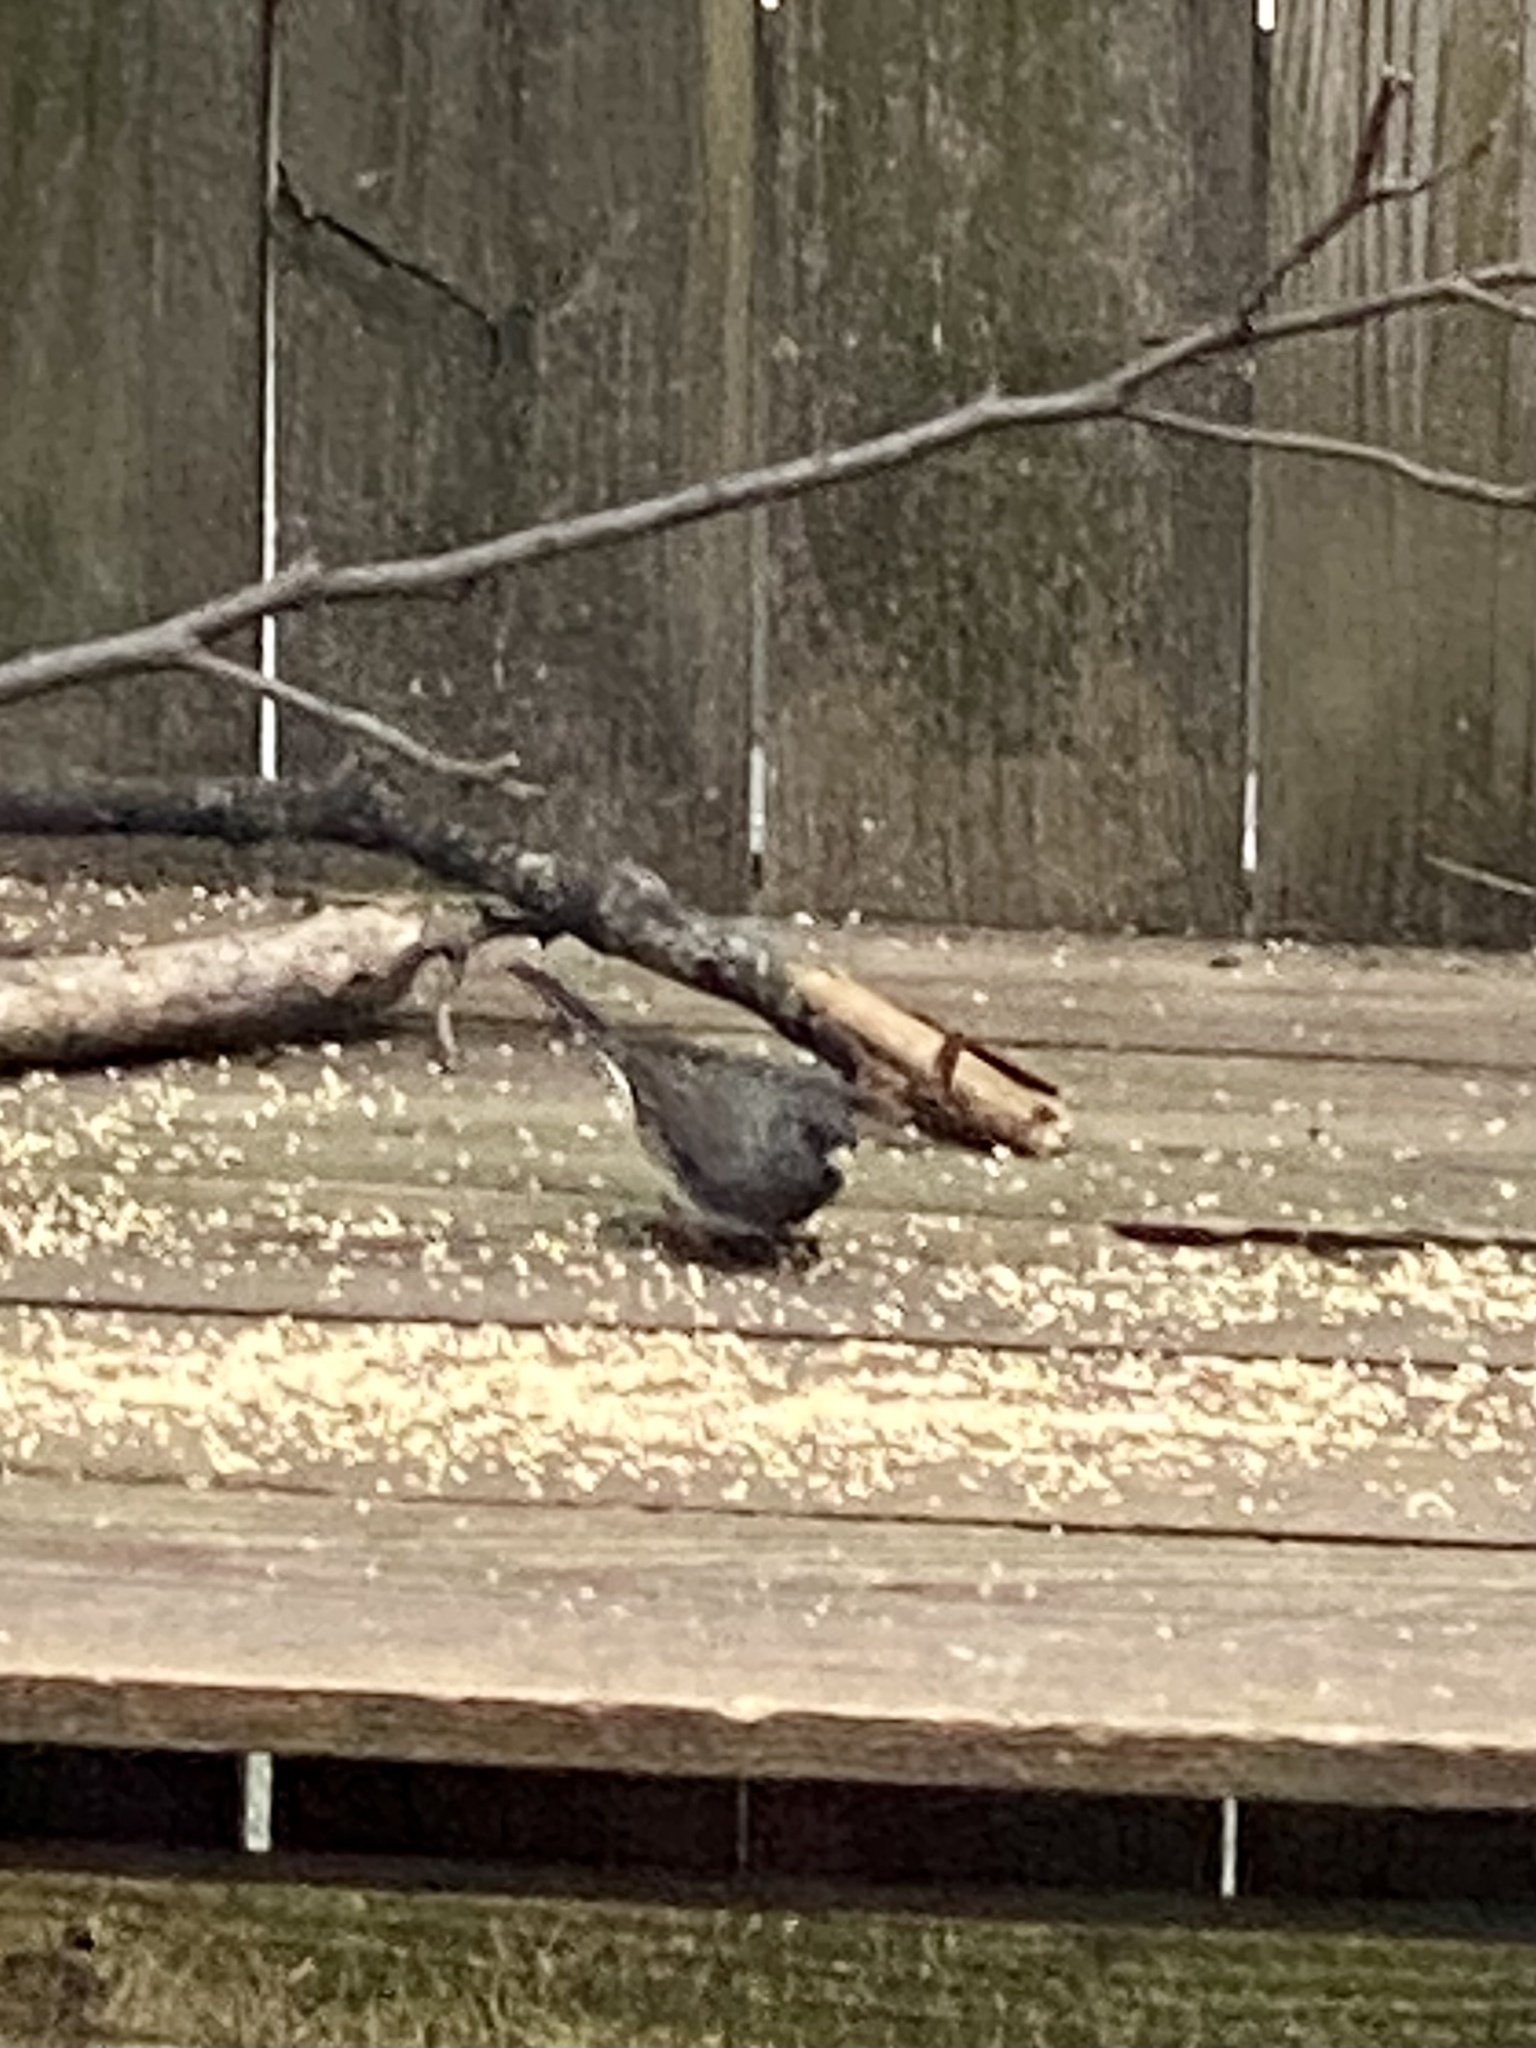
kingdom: Animalia
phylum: Chordata
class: Aves
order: Passeriformes
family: Passerellidae
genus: Junco
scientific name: Junco hyemalis
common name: Dark-eyed junco
